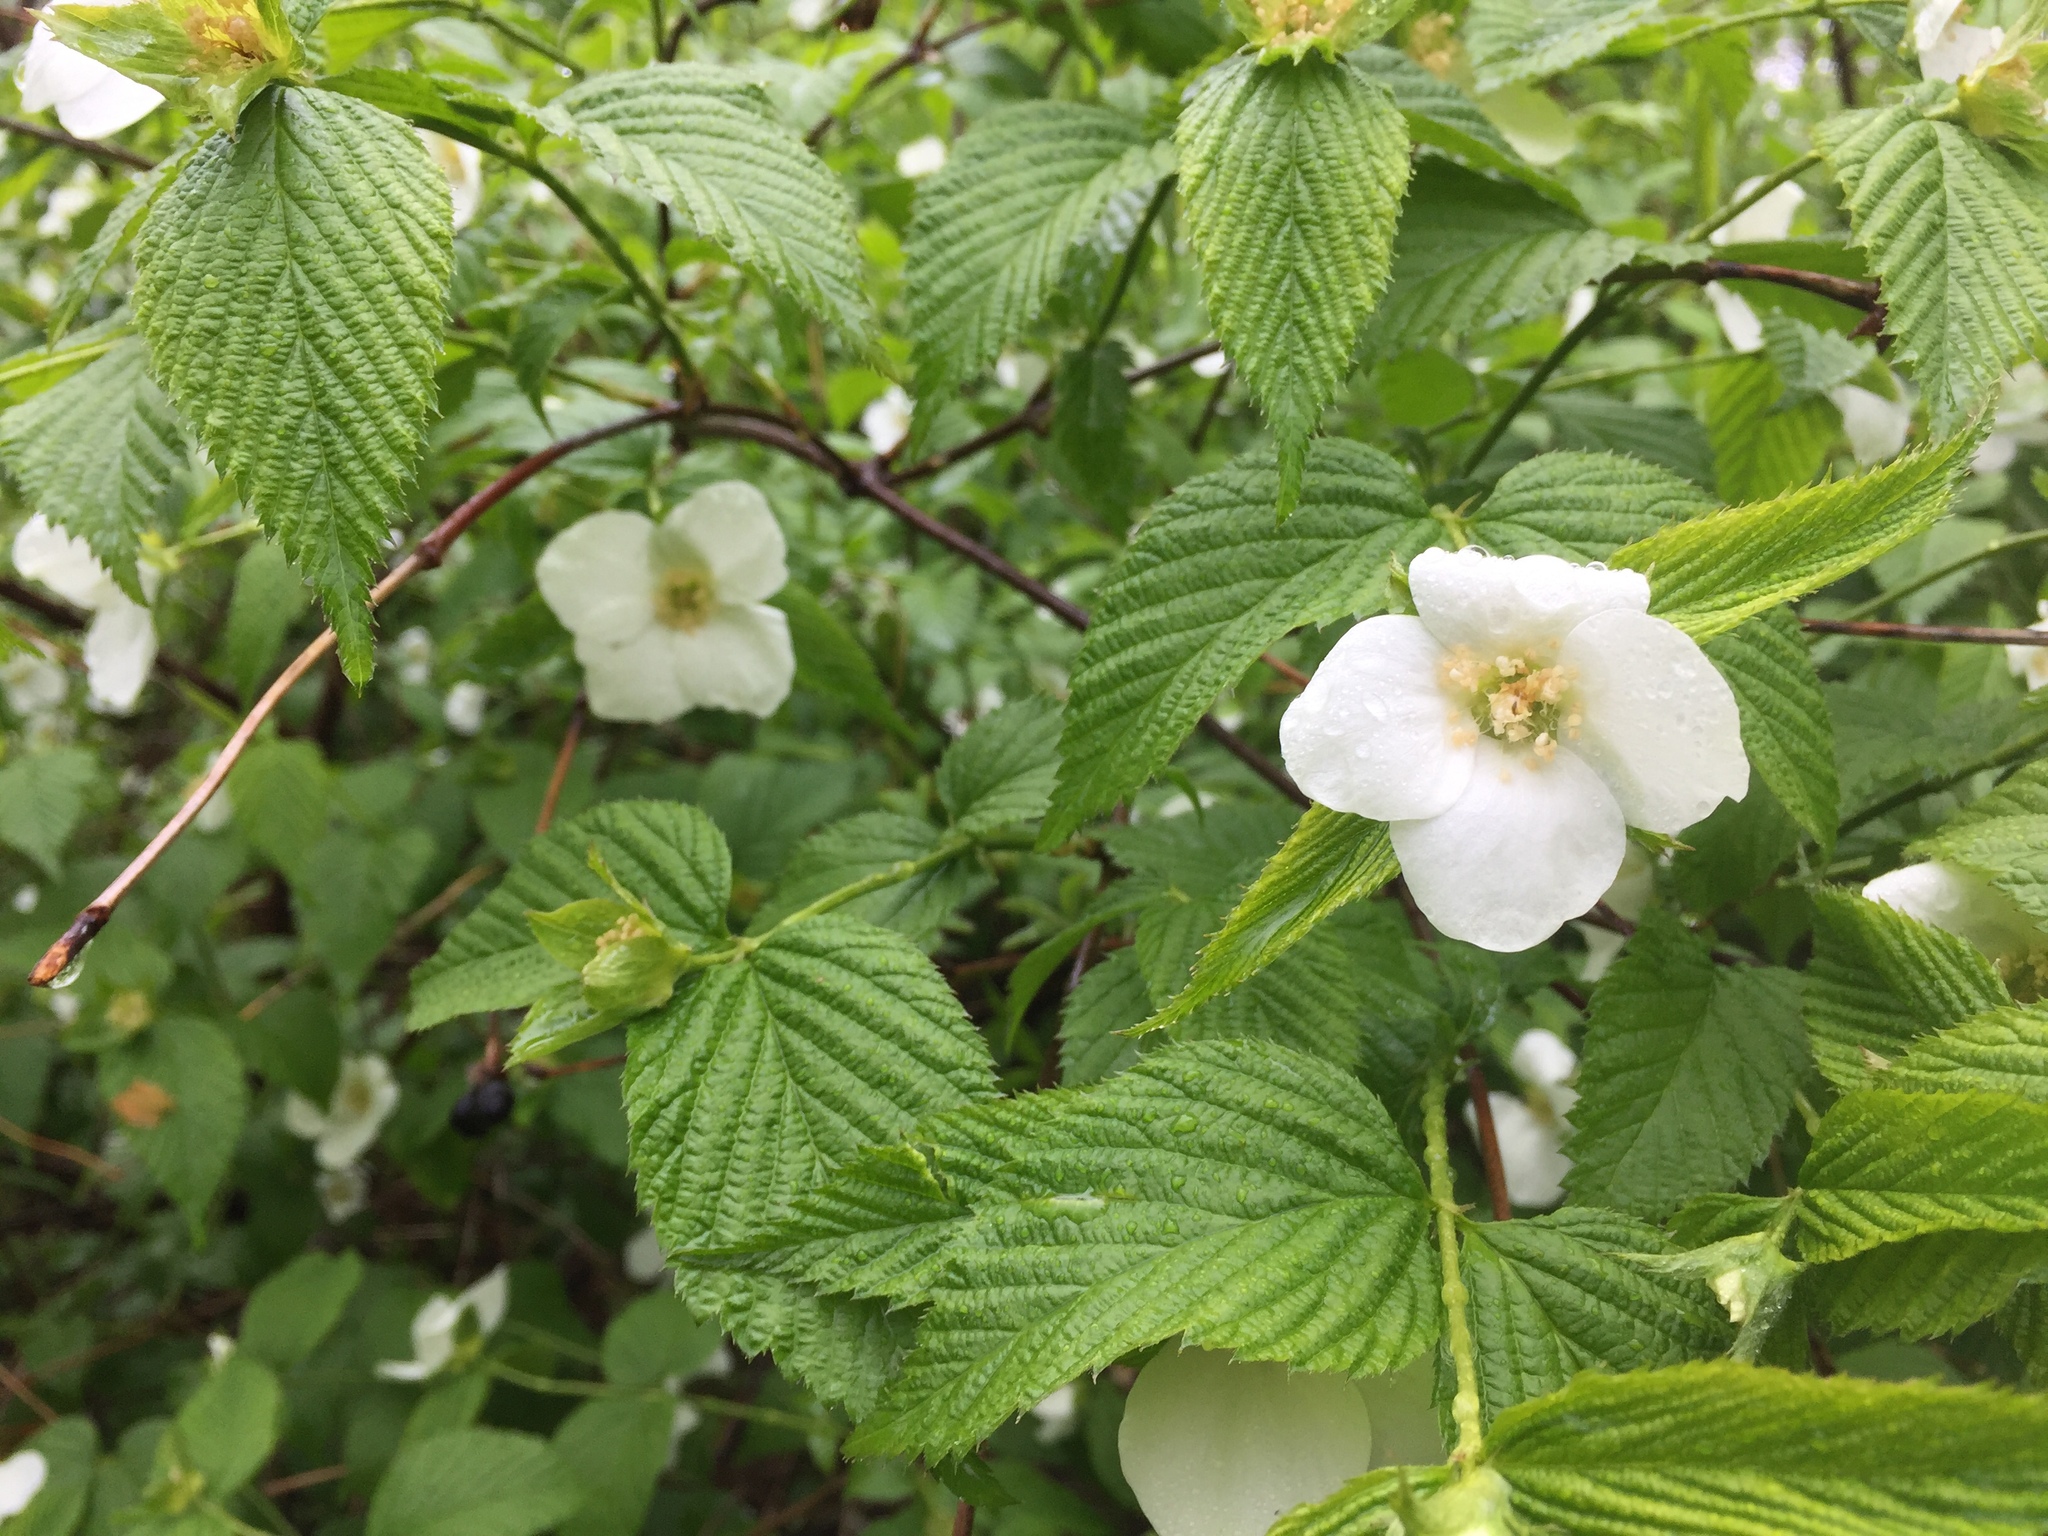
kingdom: Plantae
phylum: Tracheophyta
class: Magnoliopsida
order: Rosales
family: Rosaceae
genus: Rhodotypos
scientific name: Rhodotypos scandens
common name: Jetbead
